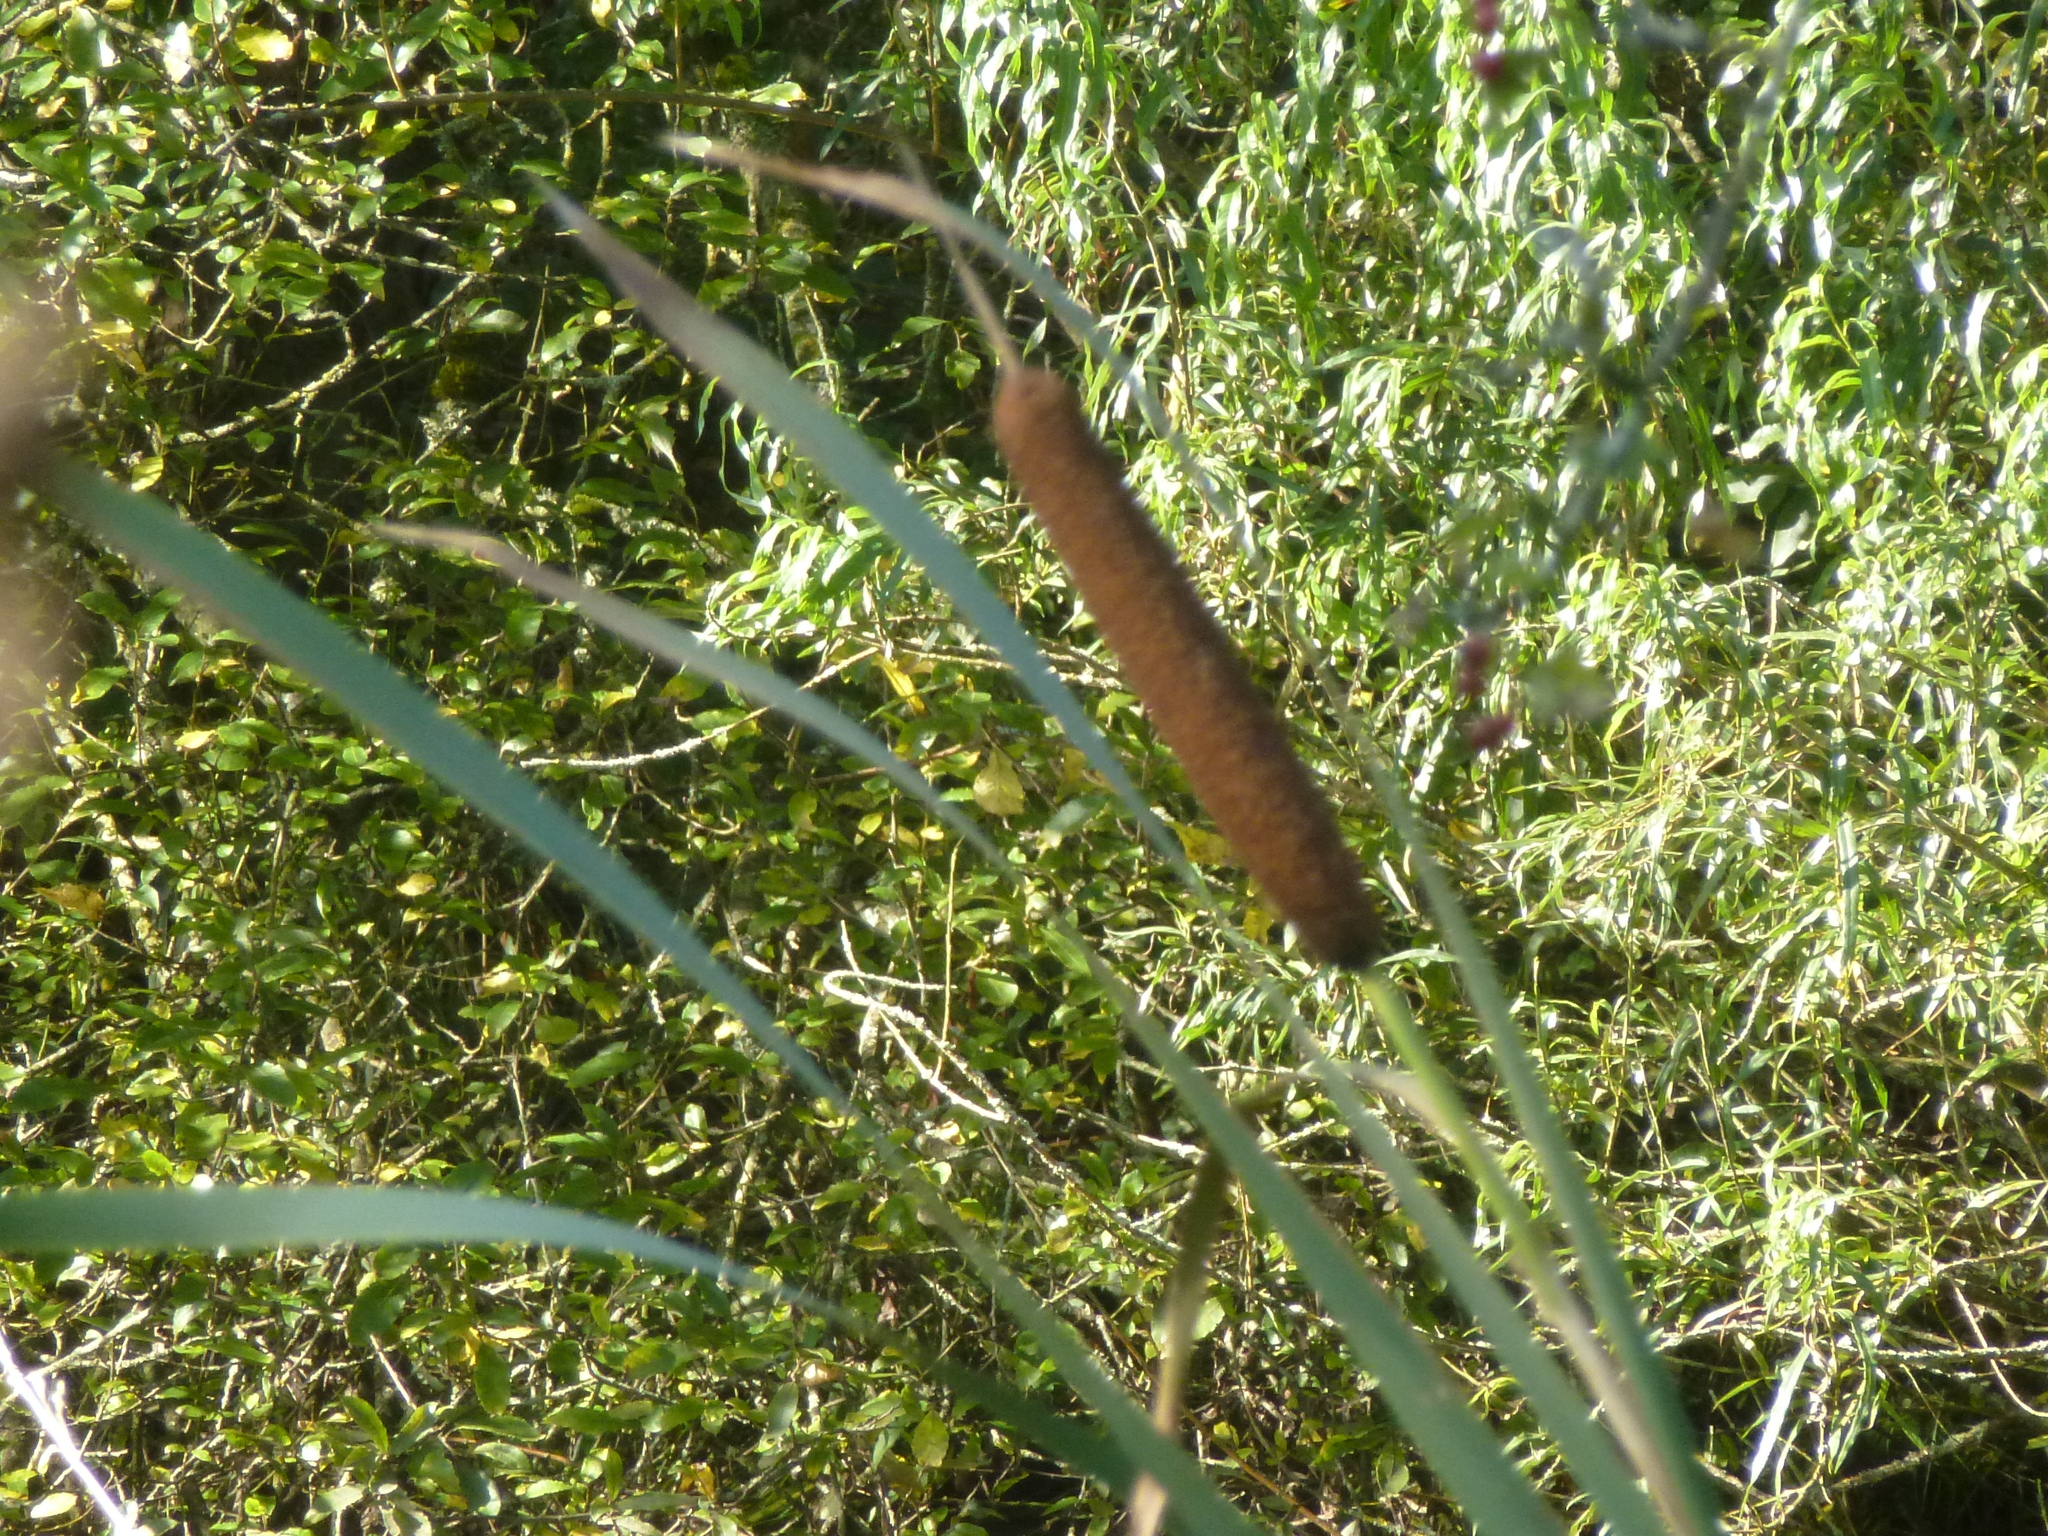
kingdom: Plantae
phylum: Tracheophyta
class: Liliopsida
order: Poales
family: Typhaceae
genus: Typha
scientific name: Typha latifolia
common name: Broadleaf cattail
